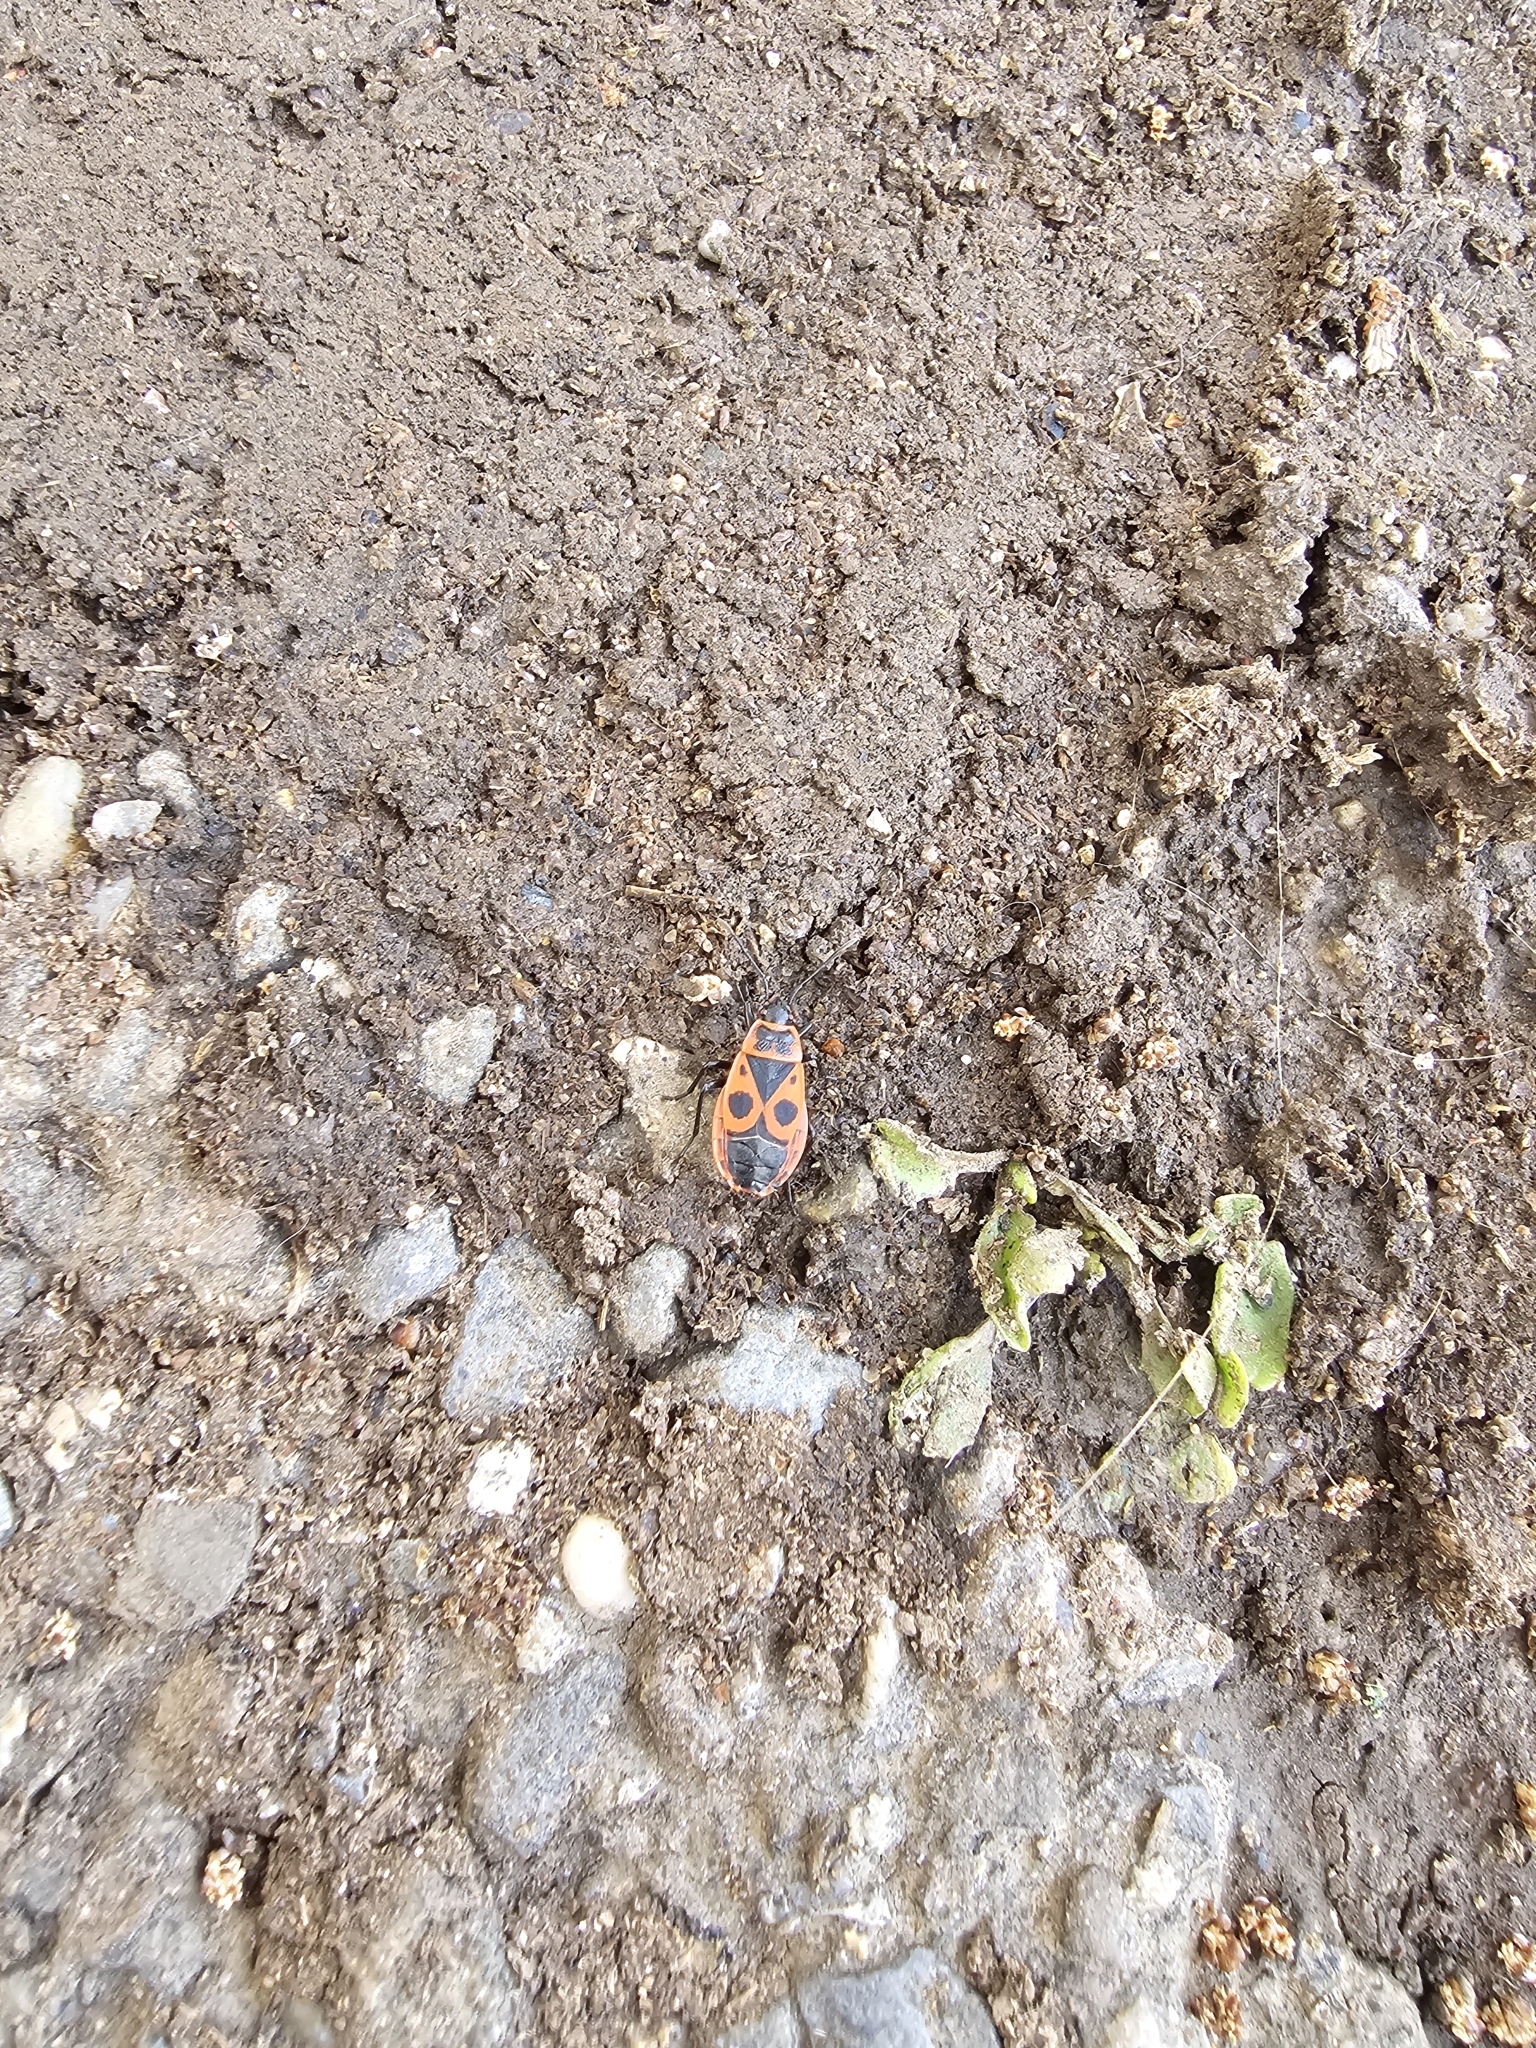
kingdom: Animalia
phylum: Arthropoda
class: Insecta
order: Hemiptera
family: Pyrrhocoridae
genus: Pyrrhocoris
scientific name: Pyrrhocoris apterus
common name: Firebug
